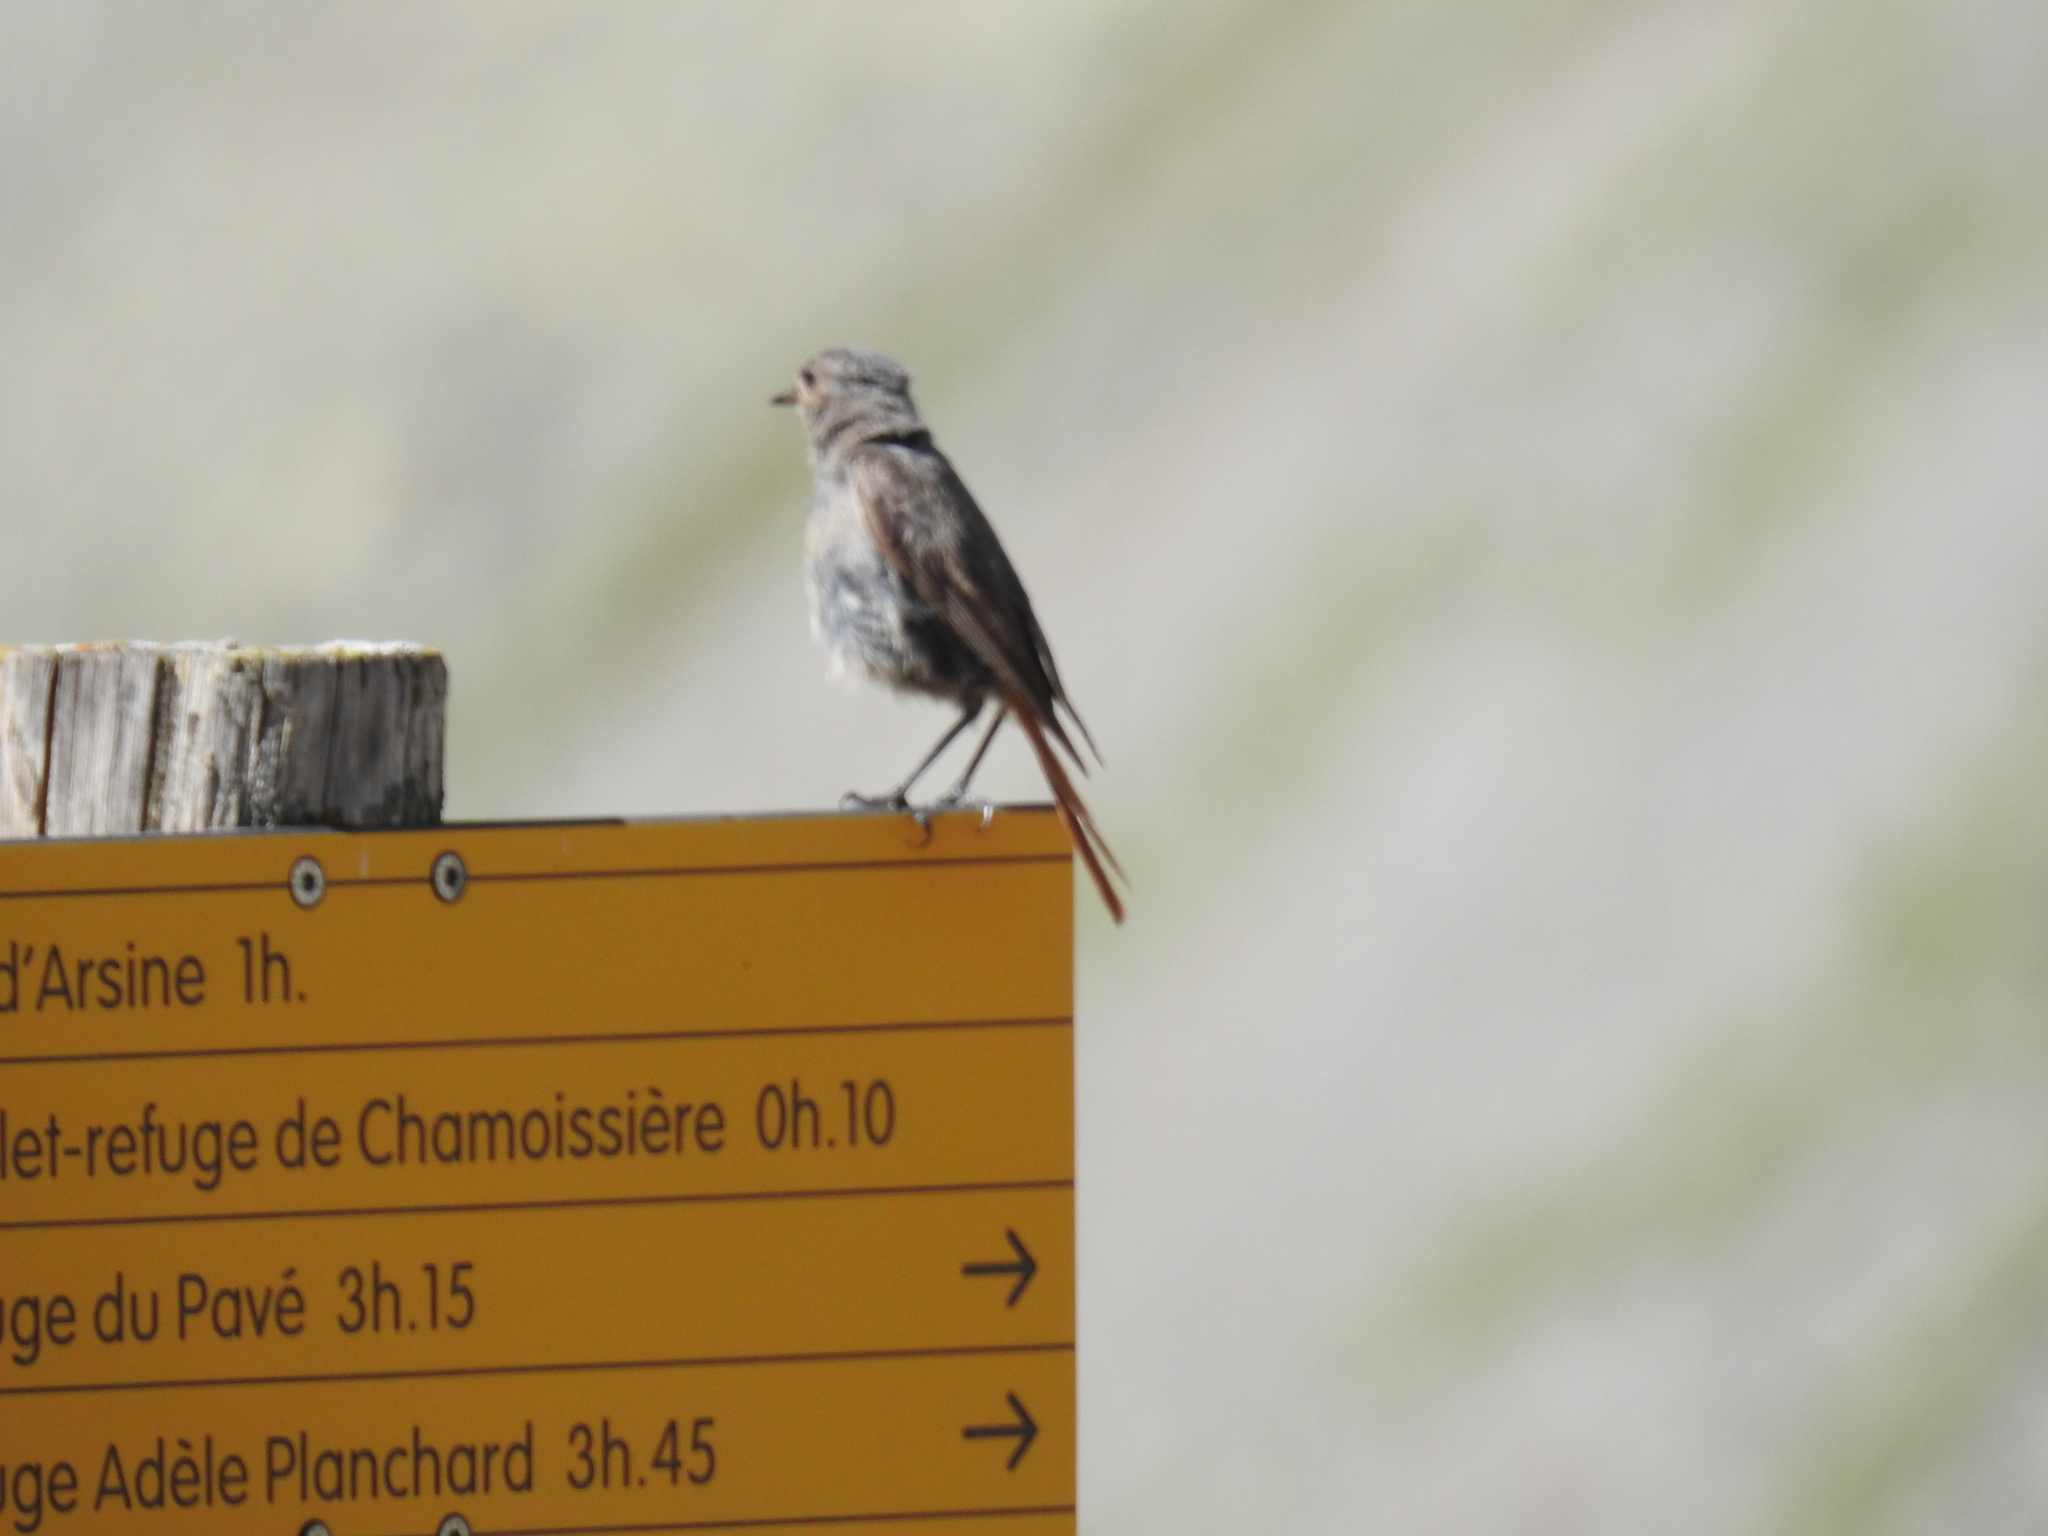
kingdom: Animalia
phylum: Chordata
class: Aves
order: Passeriformes
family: Muscicapidae
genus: Phoenicurus
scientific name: Phoenicurus ochruros
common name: Black redstart
